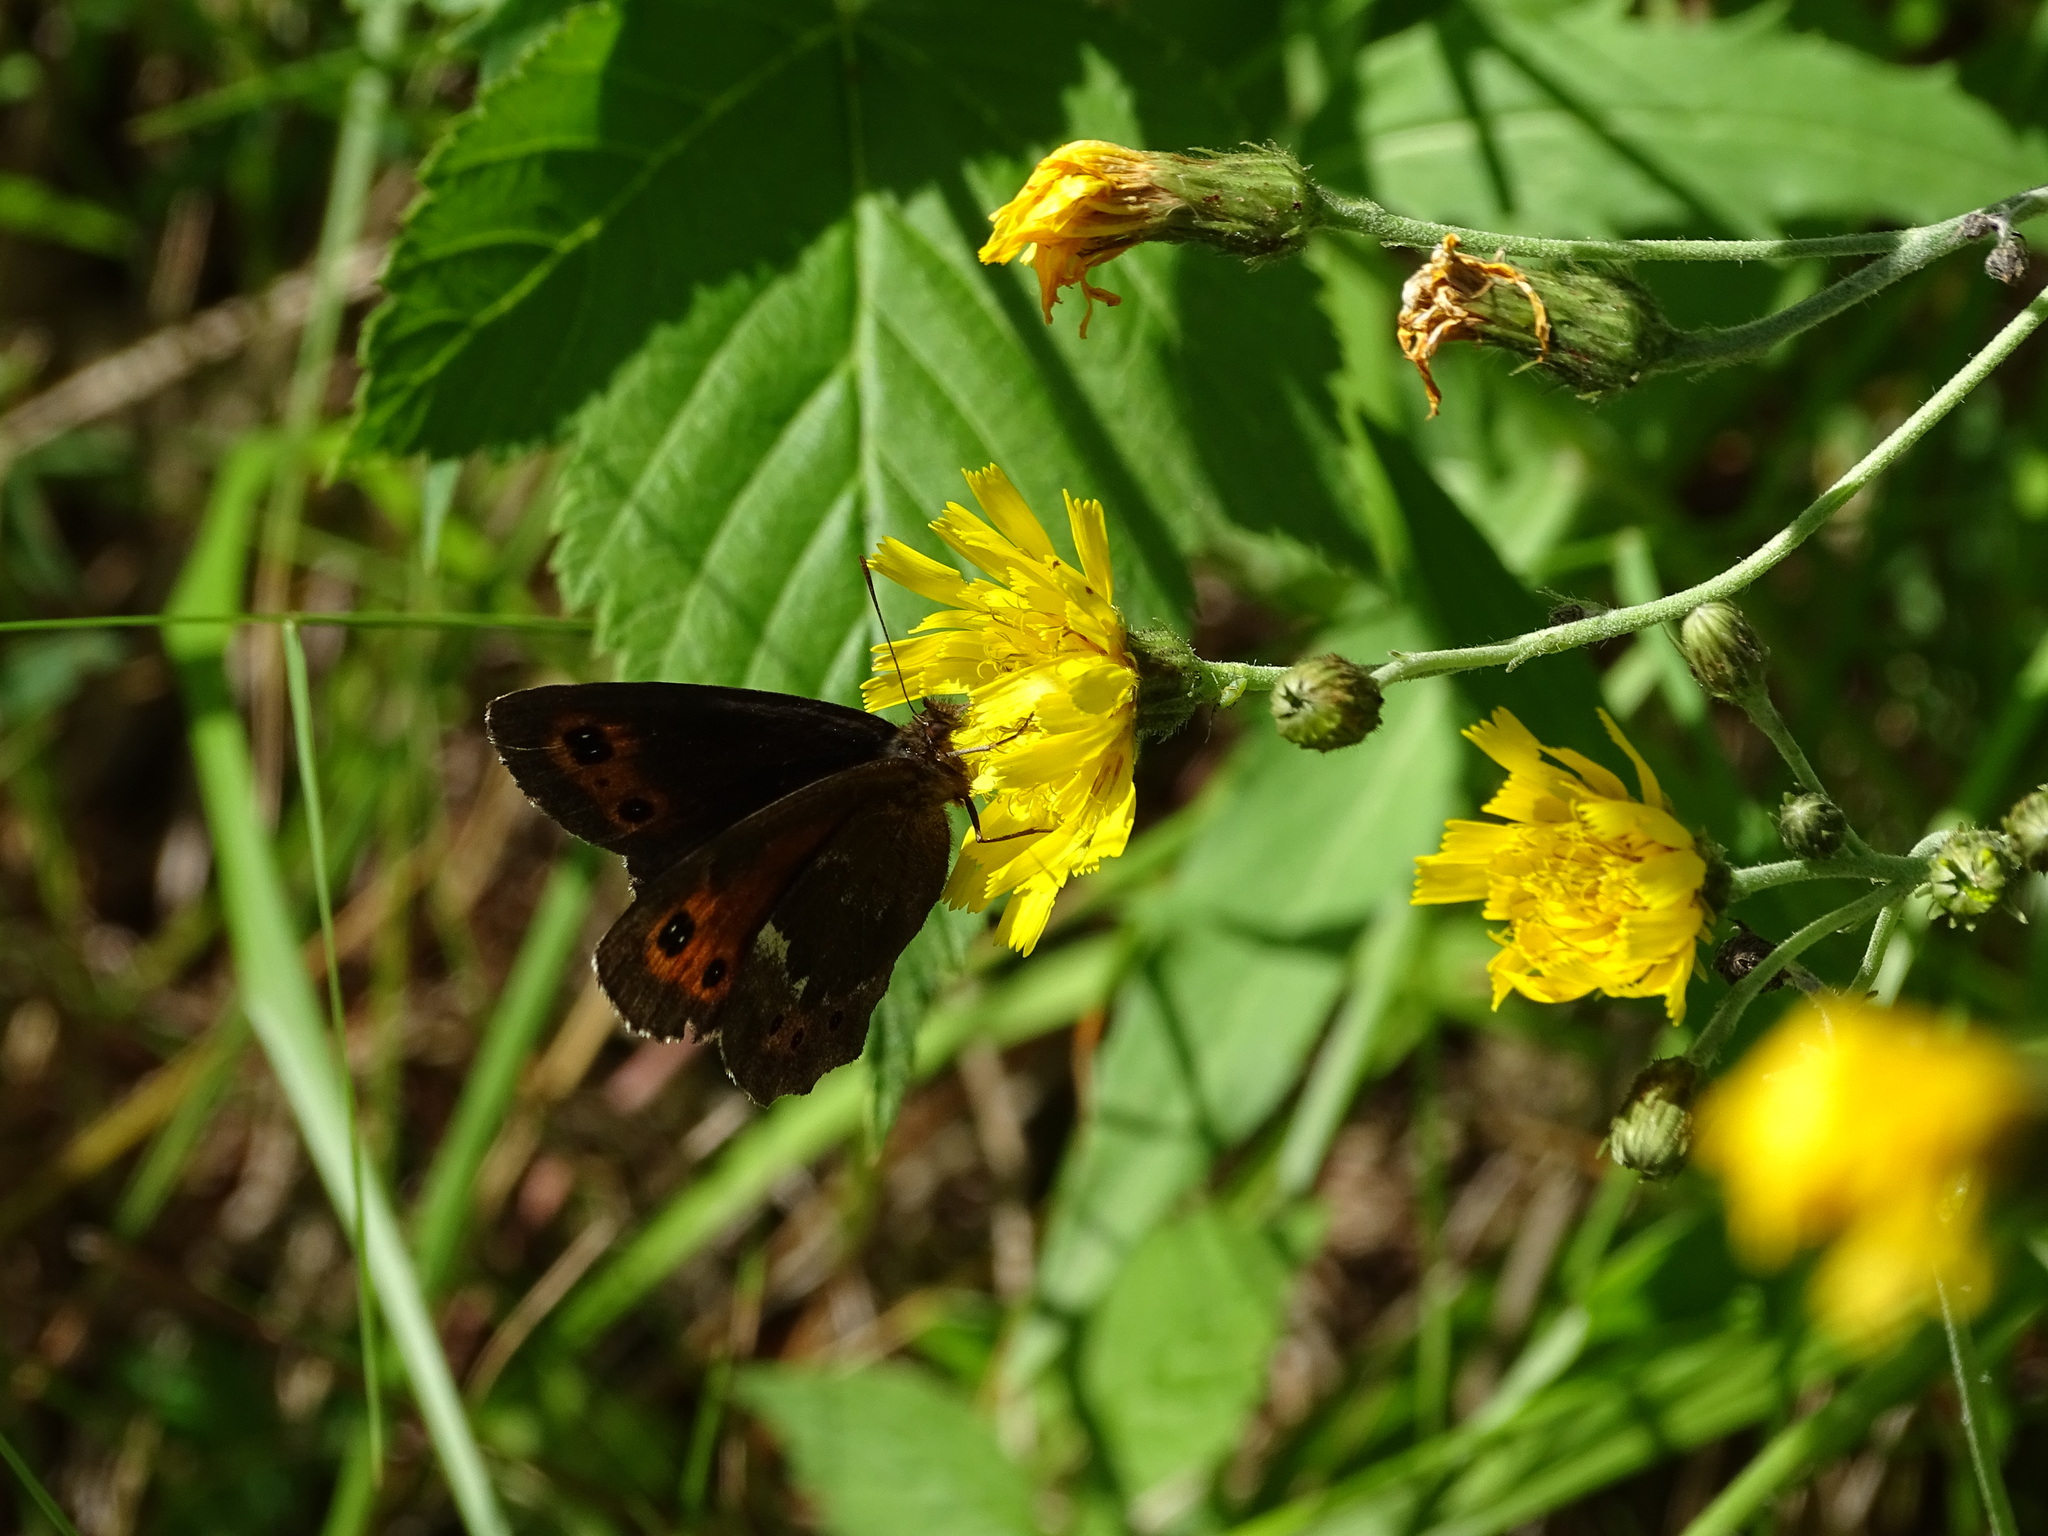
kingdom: Animalia
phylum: Arthropoda
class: Insecta
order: Lepidoptera
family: Nymphalidae
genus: Erebia
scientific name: Erebia euryale
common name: Large ringlet
